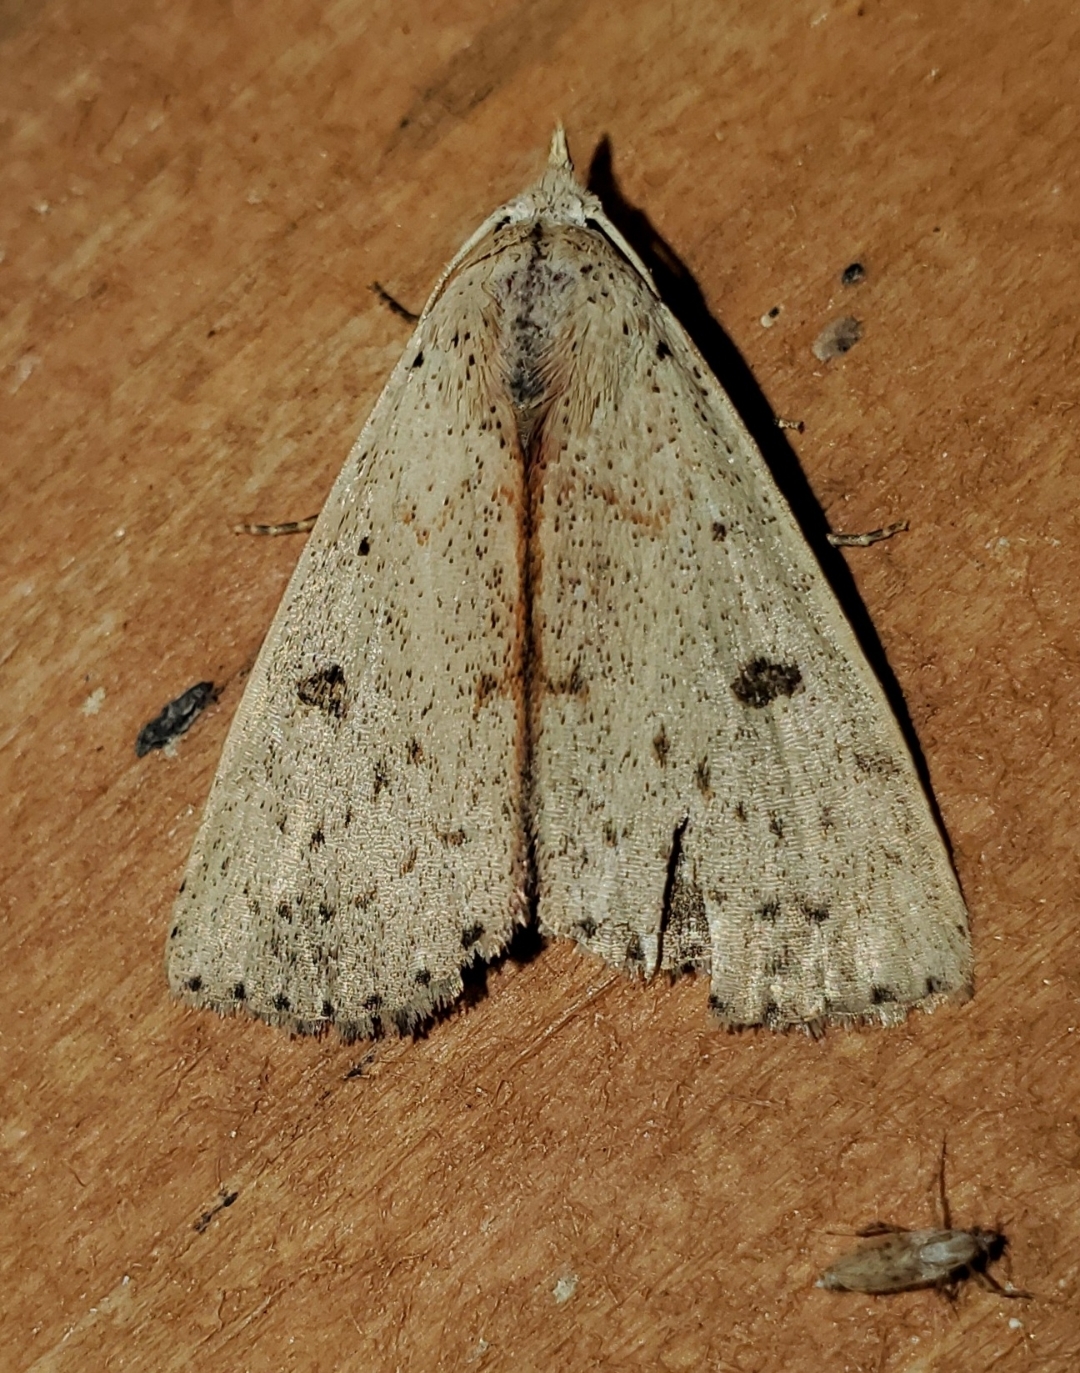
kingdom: Animalia
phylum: Arthropoda
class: Insecta
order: Lepidoptera
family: Erebidae
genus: Scolecocampa
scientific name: Scolecocampa liburna
